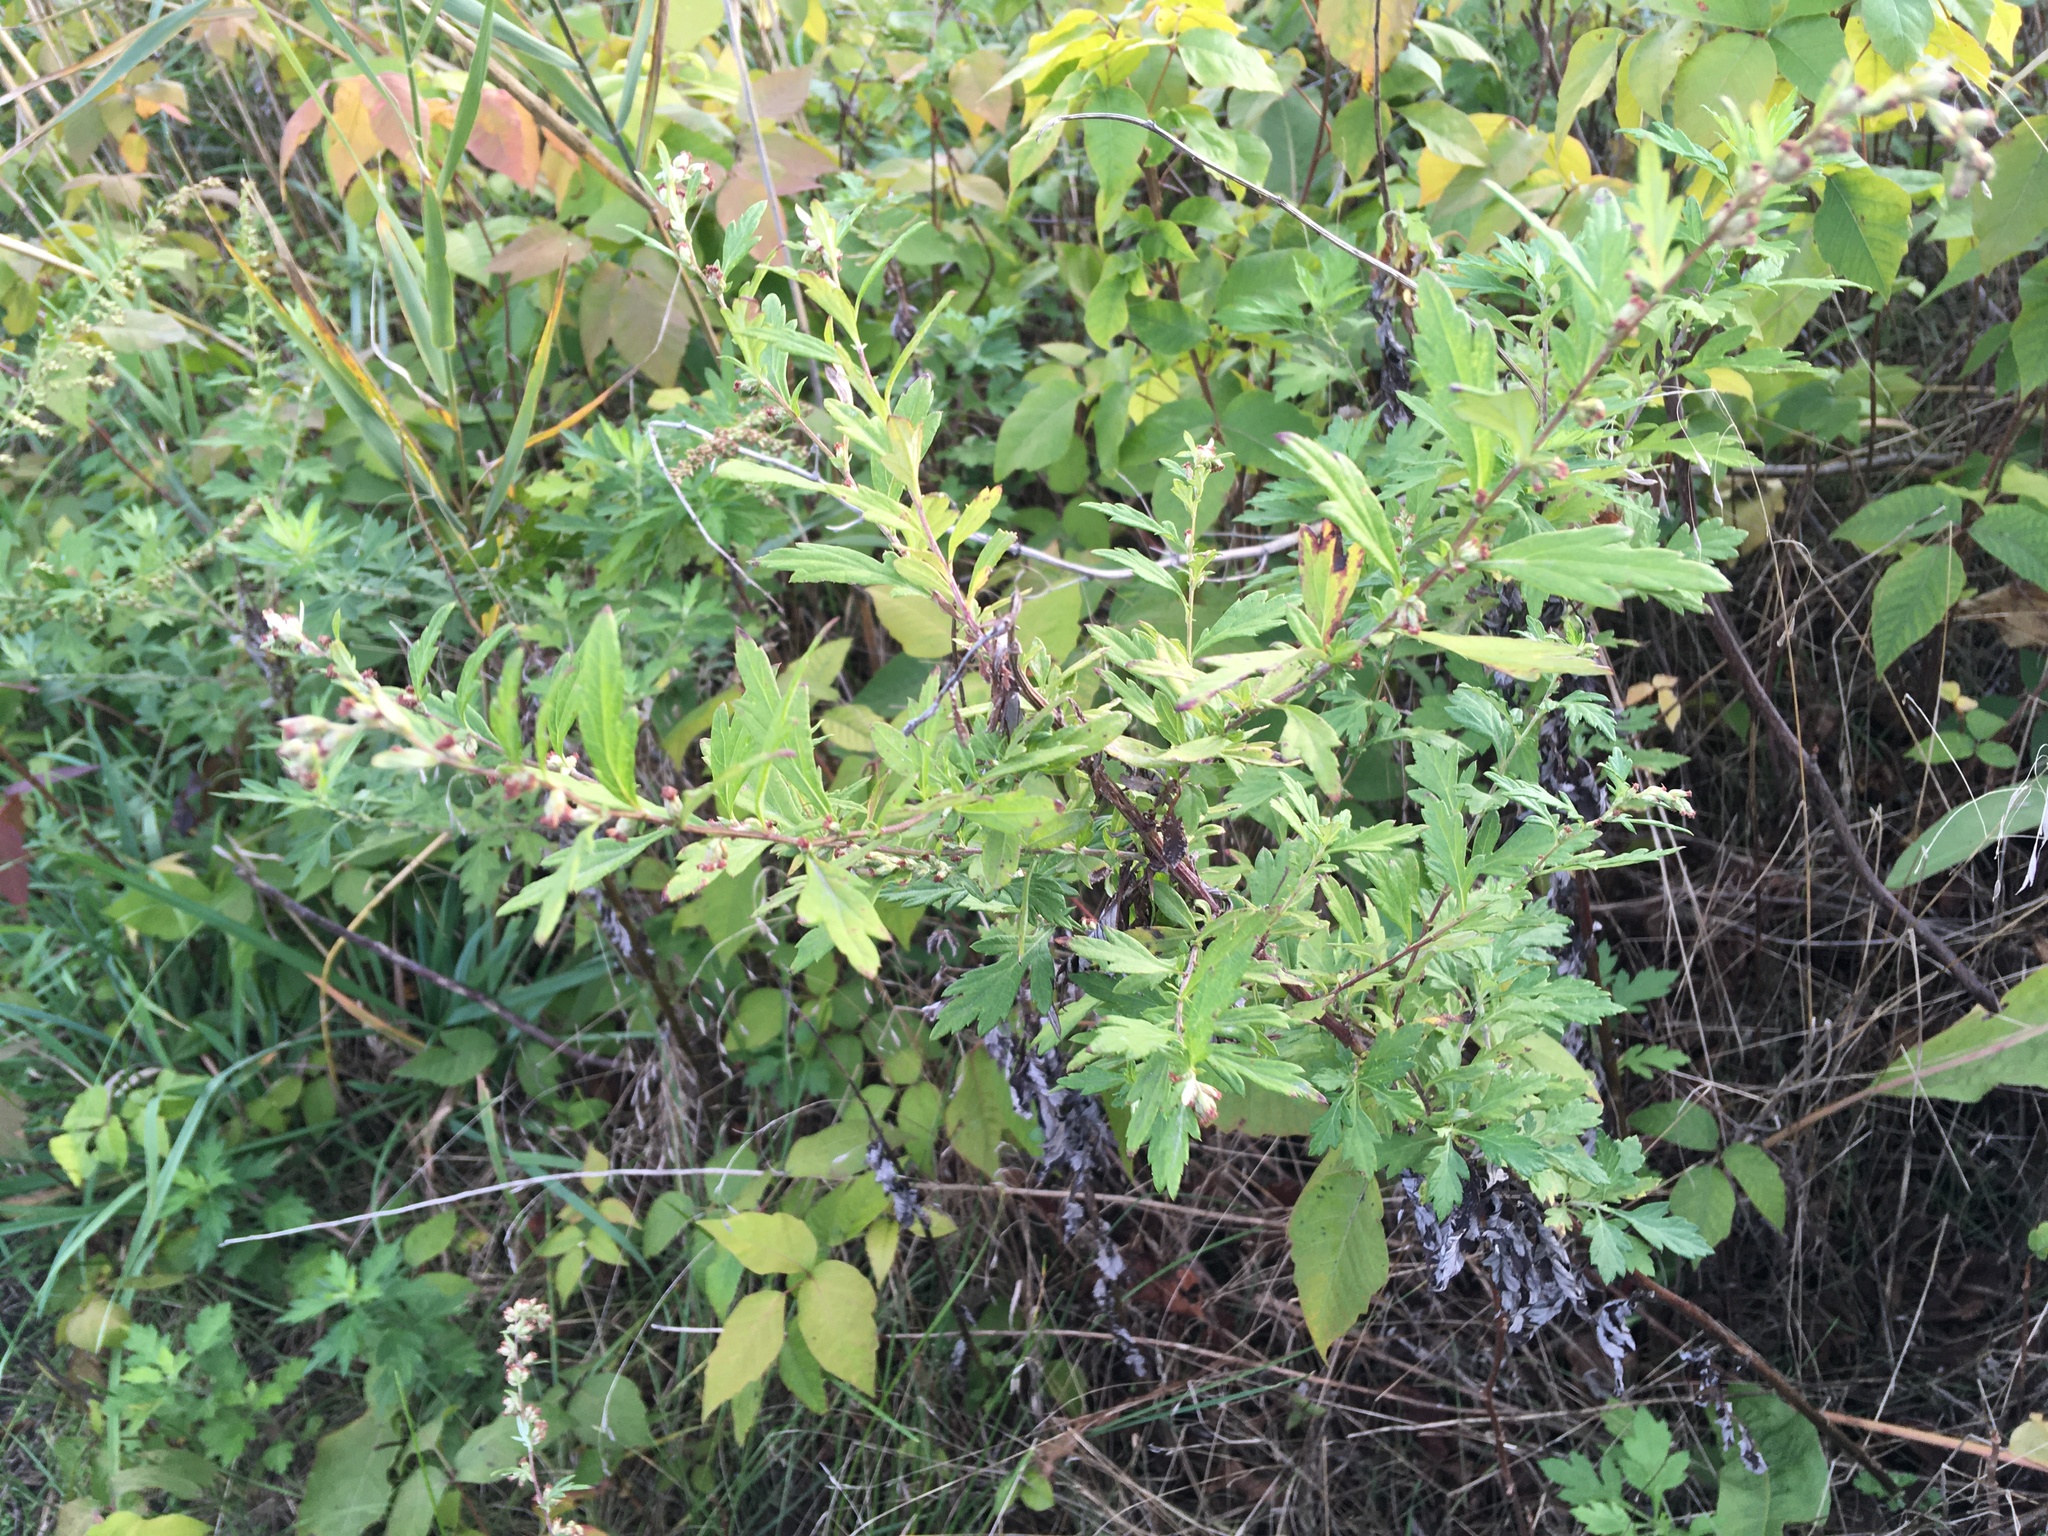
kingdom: Plantae
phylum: Tracheophyta
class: Magnoliopsida
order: Asterales
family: Asteraceae
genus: Artemisia
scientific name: Artemisia vulgaris
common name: Mugwort
